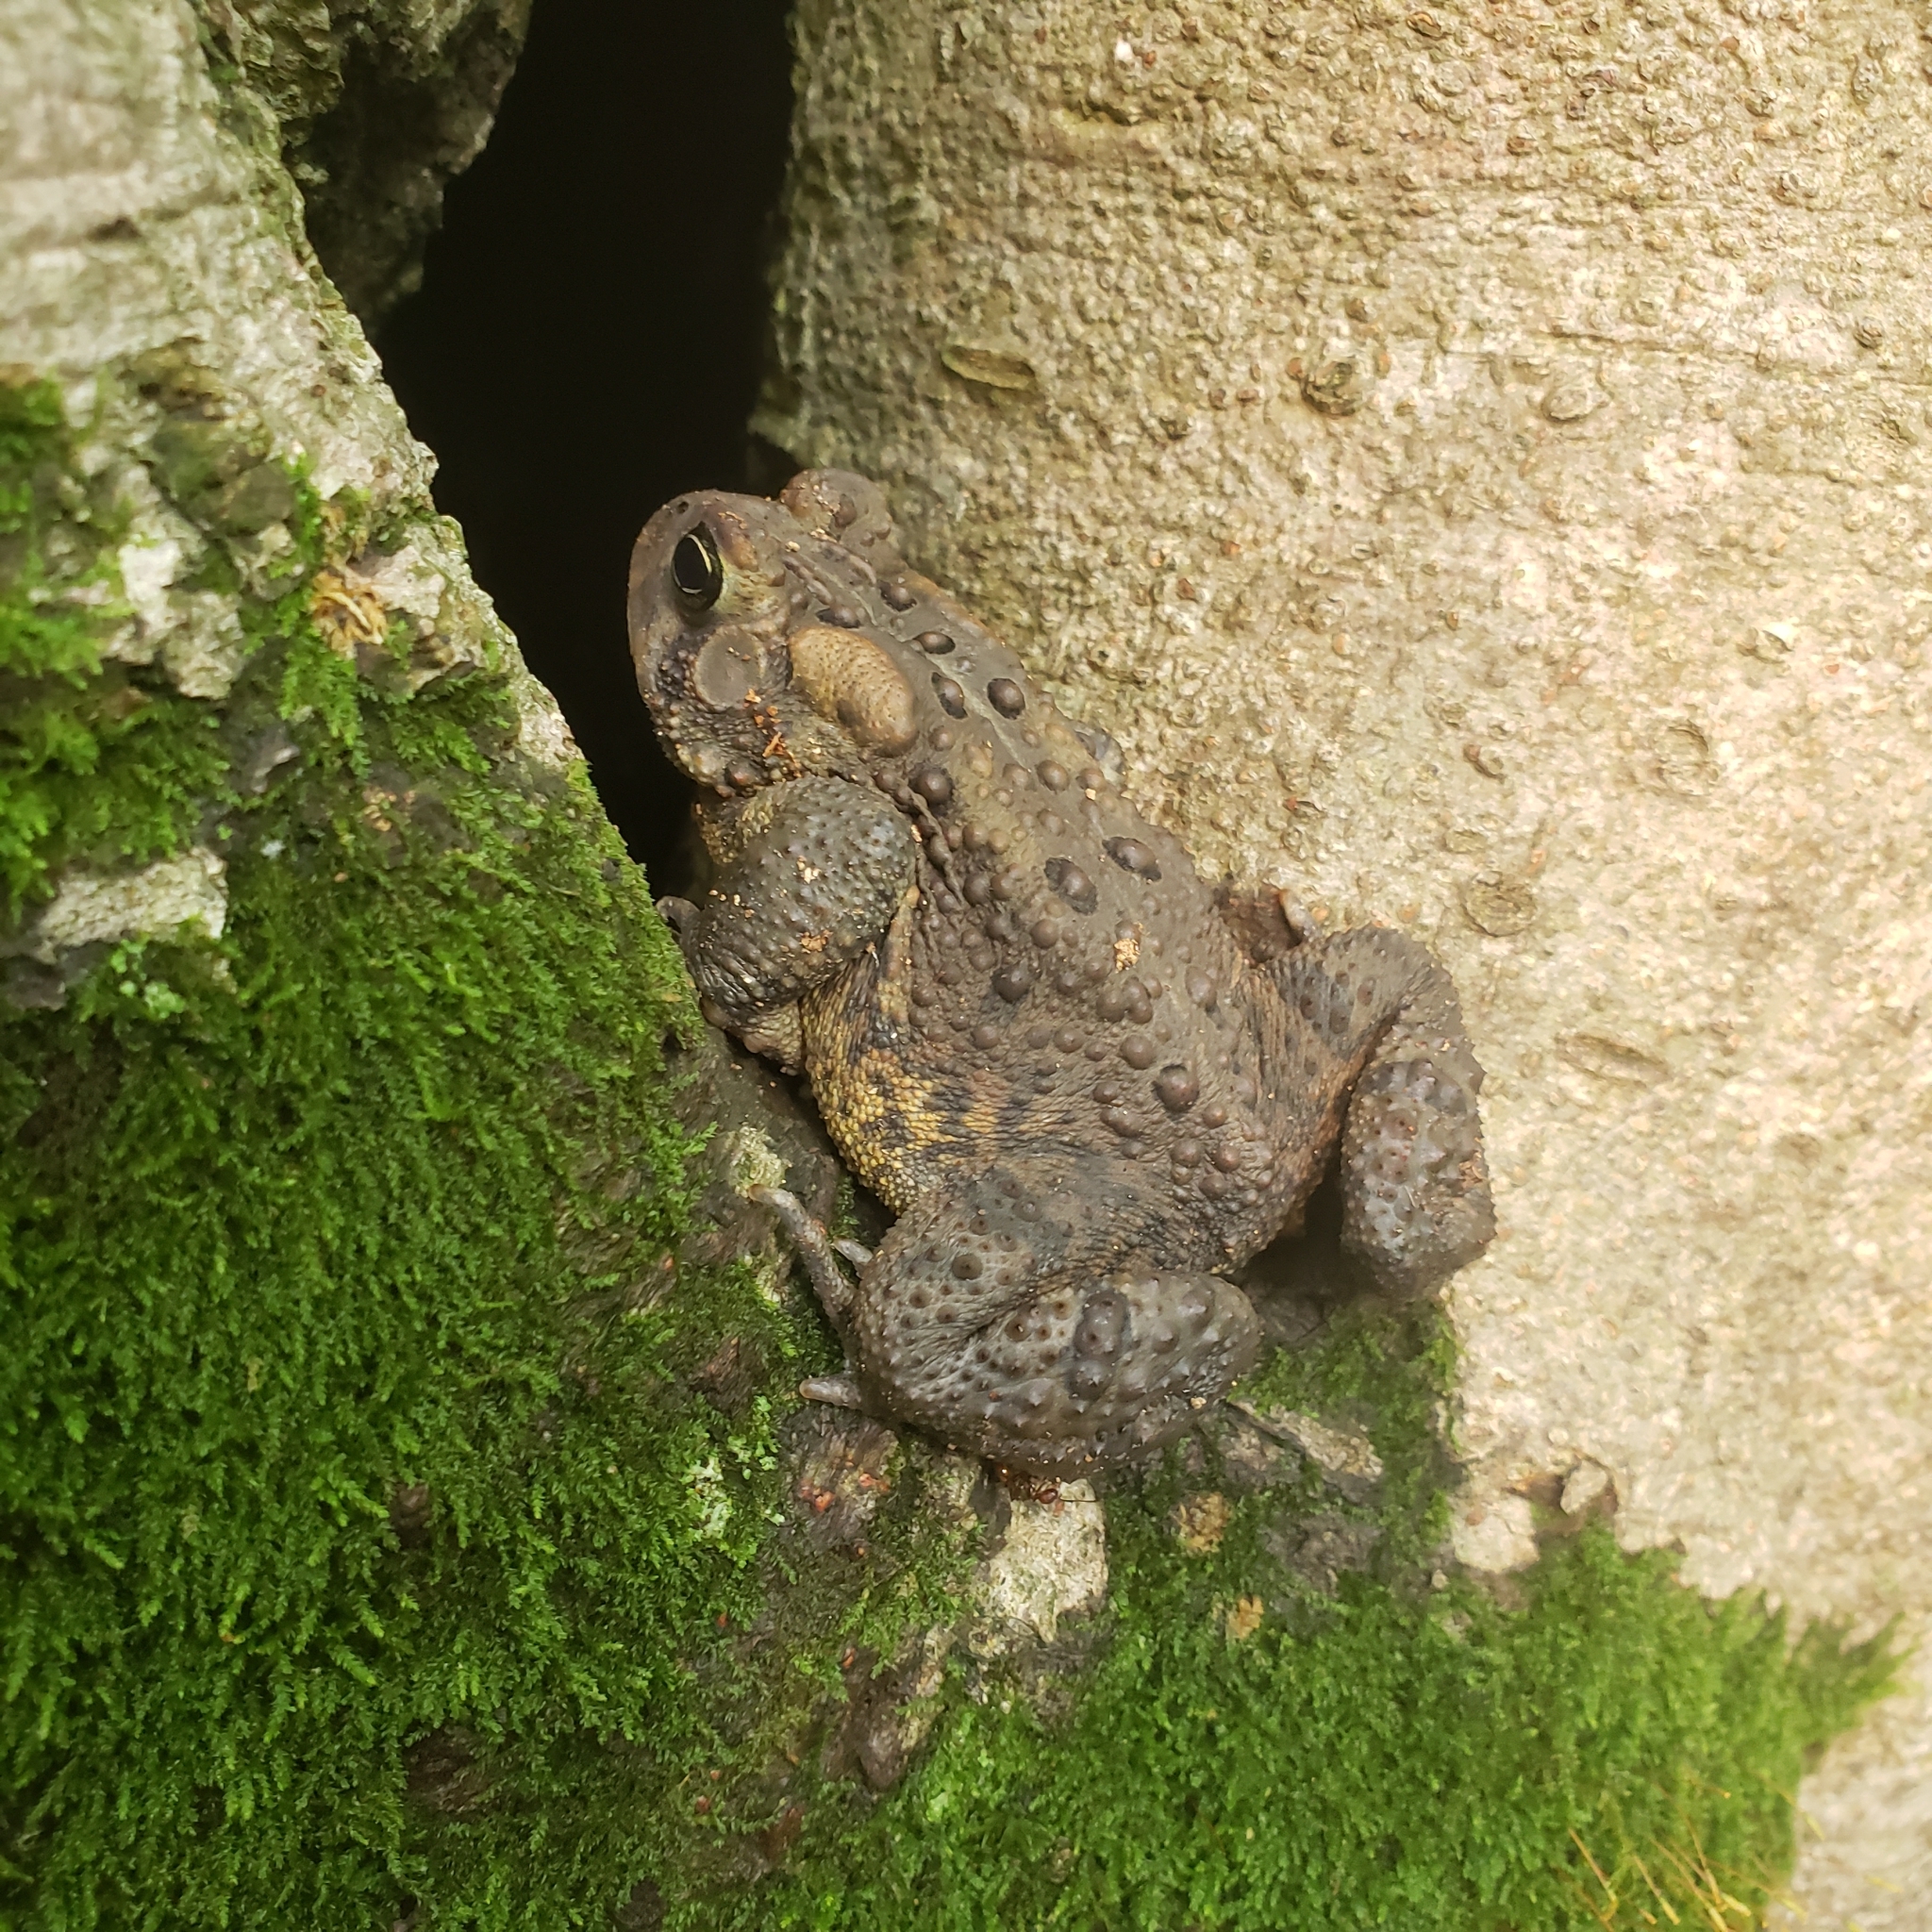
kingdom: Animalia
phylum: Chordata
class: Amphibia
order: Anura
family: Bufonidae
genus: Anaxyrus
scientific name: Anaxyrus americanus
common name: American toad
